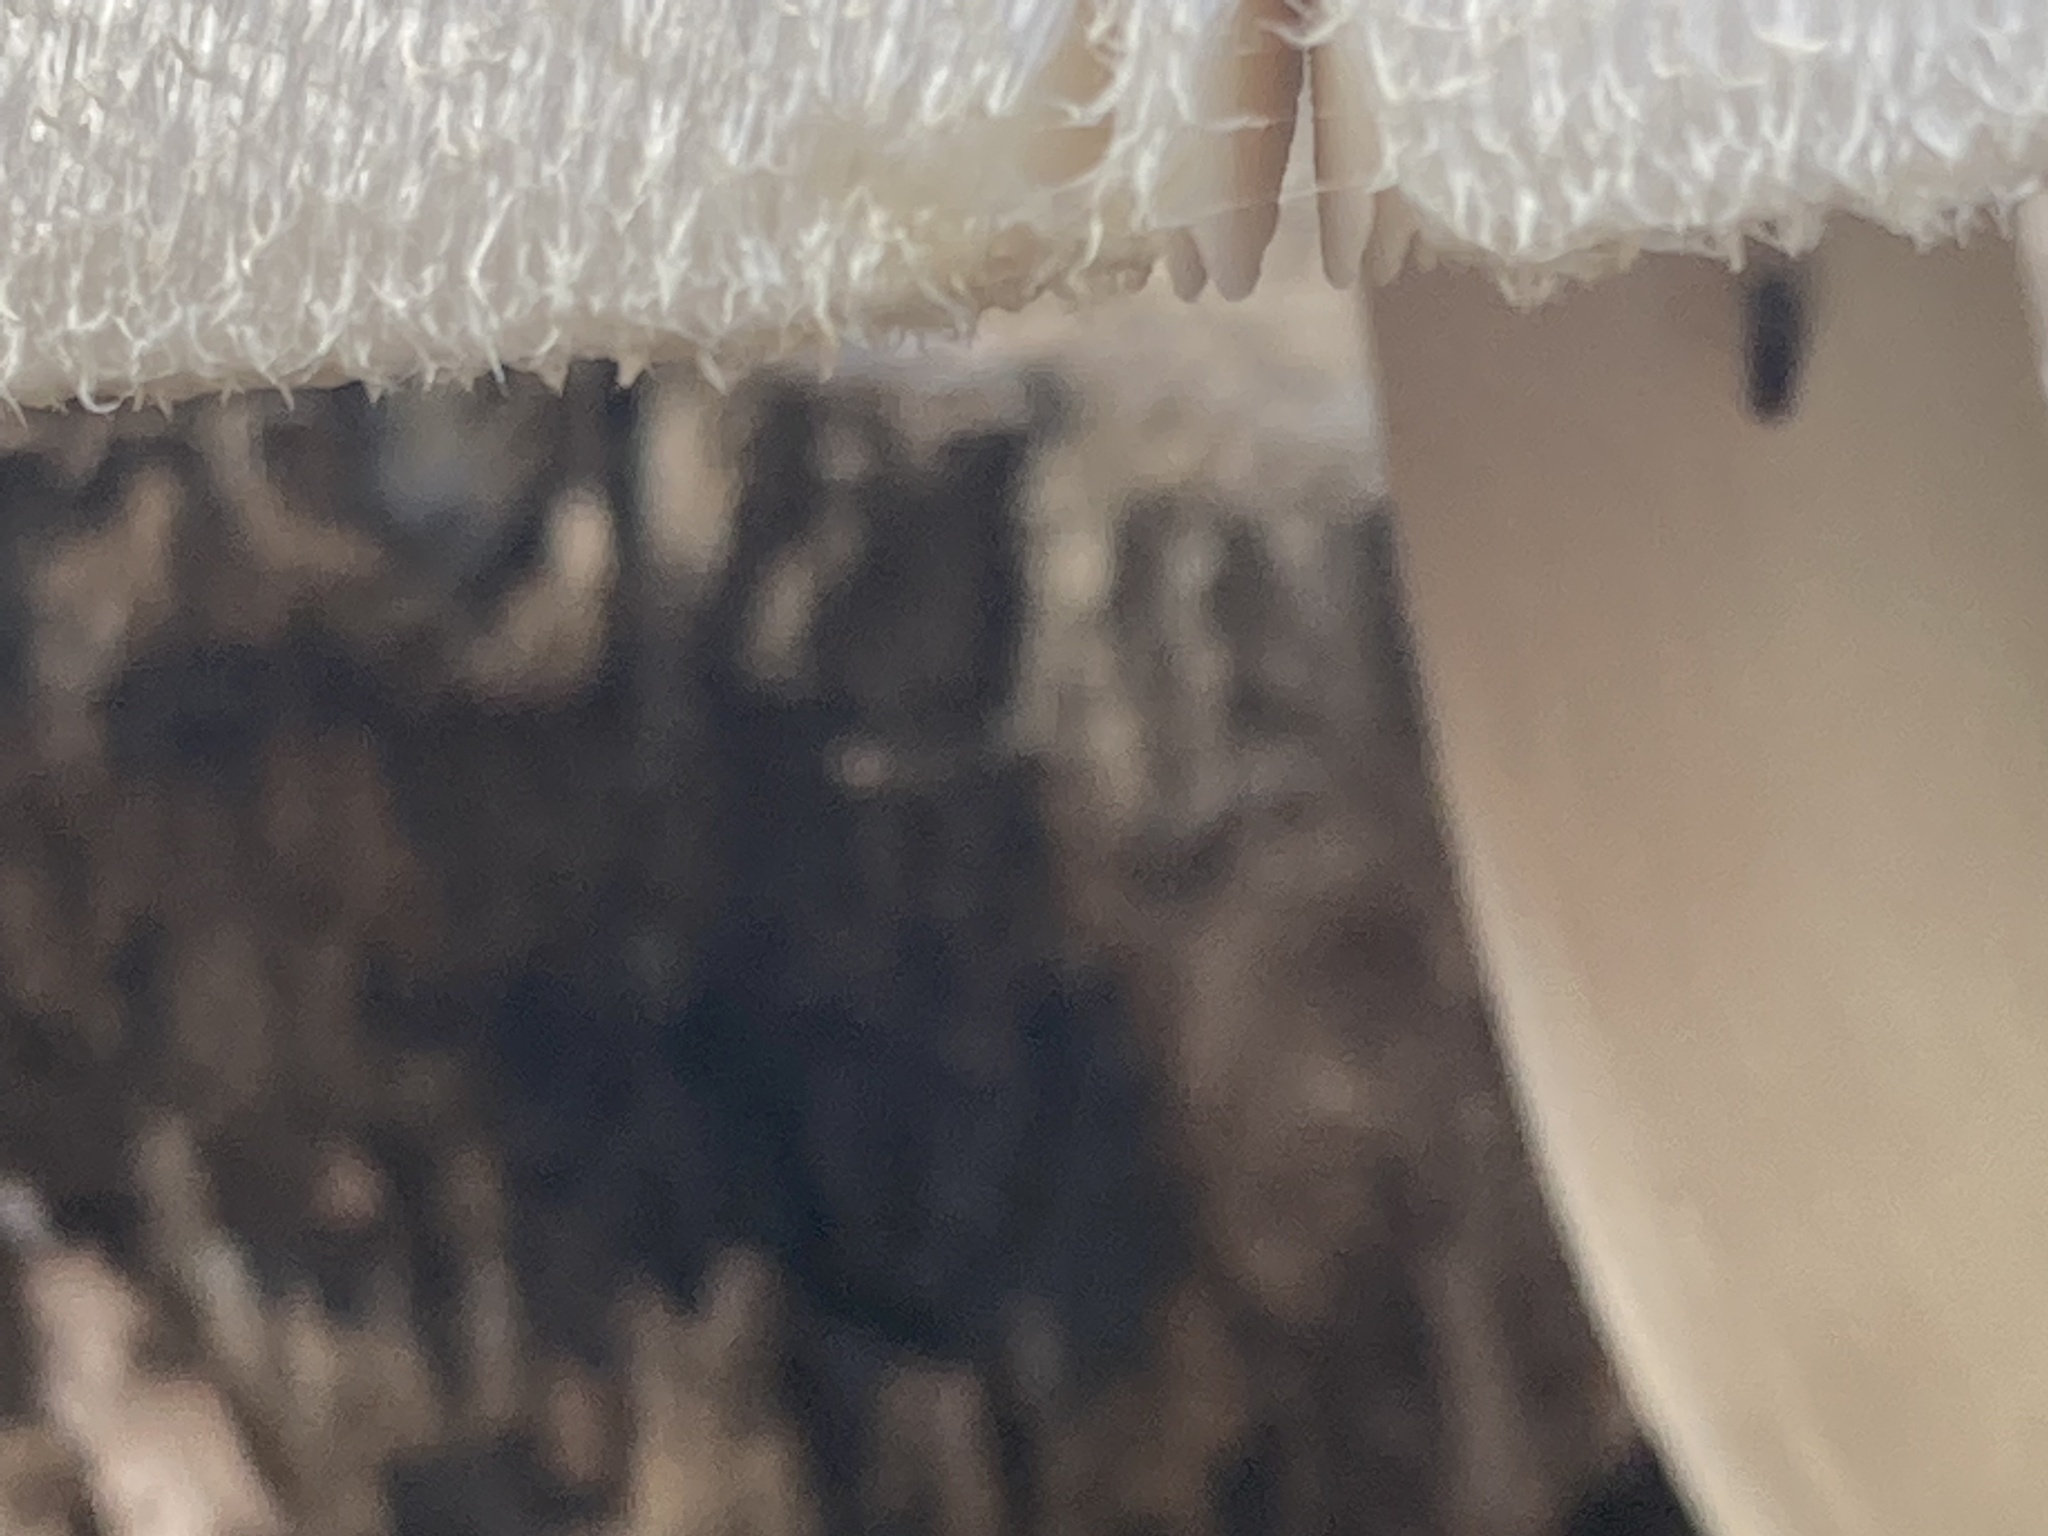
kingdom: Fungi
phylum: Basidiomycota
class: Agaricomycetes
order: Agaricales
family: Pluteaceae
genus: Volvariella
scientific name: Volvariella bombycina
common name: Silky rosegill
